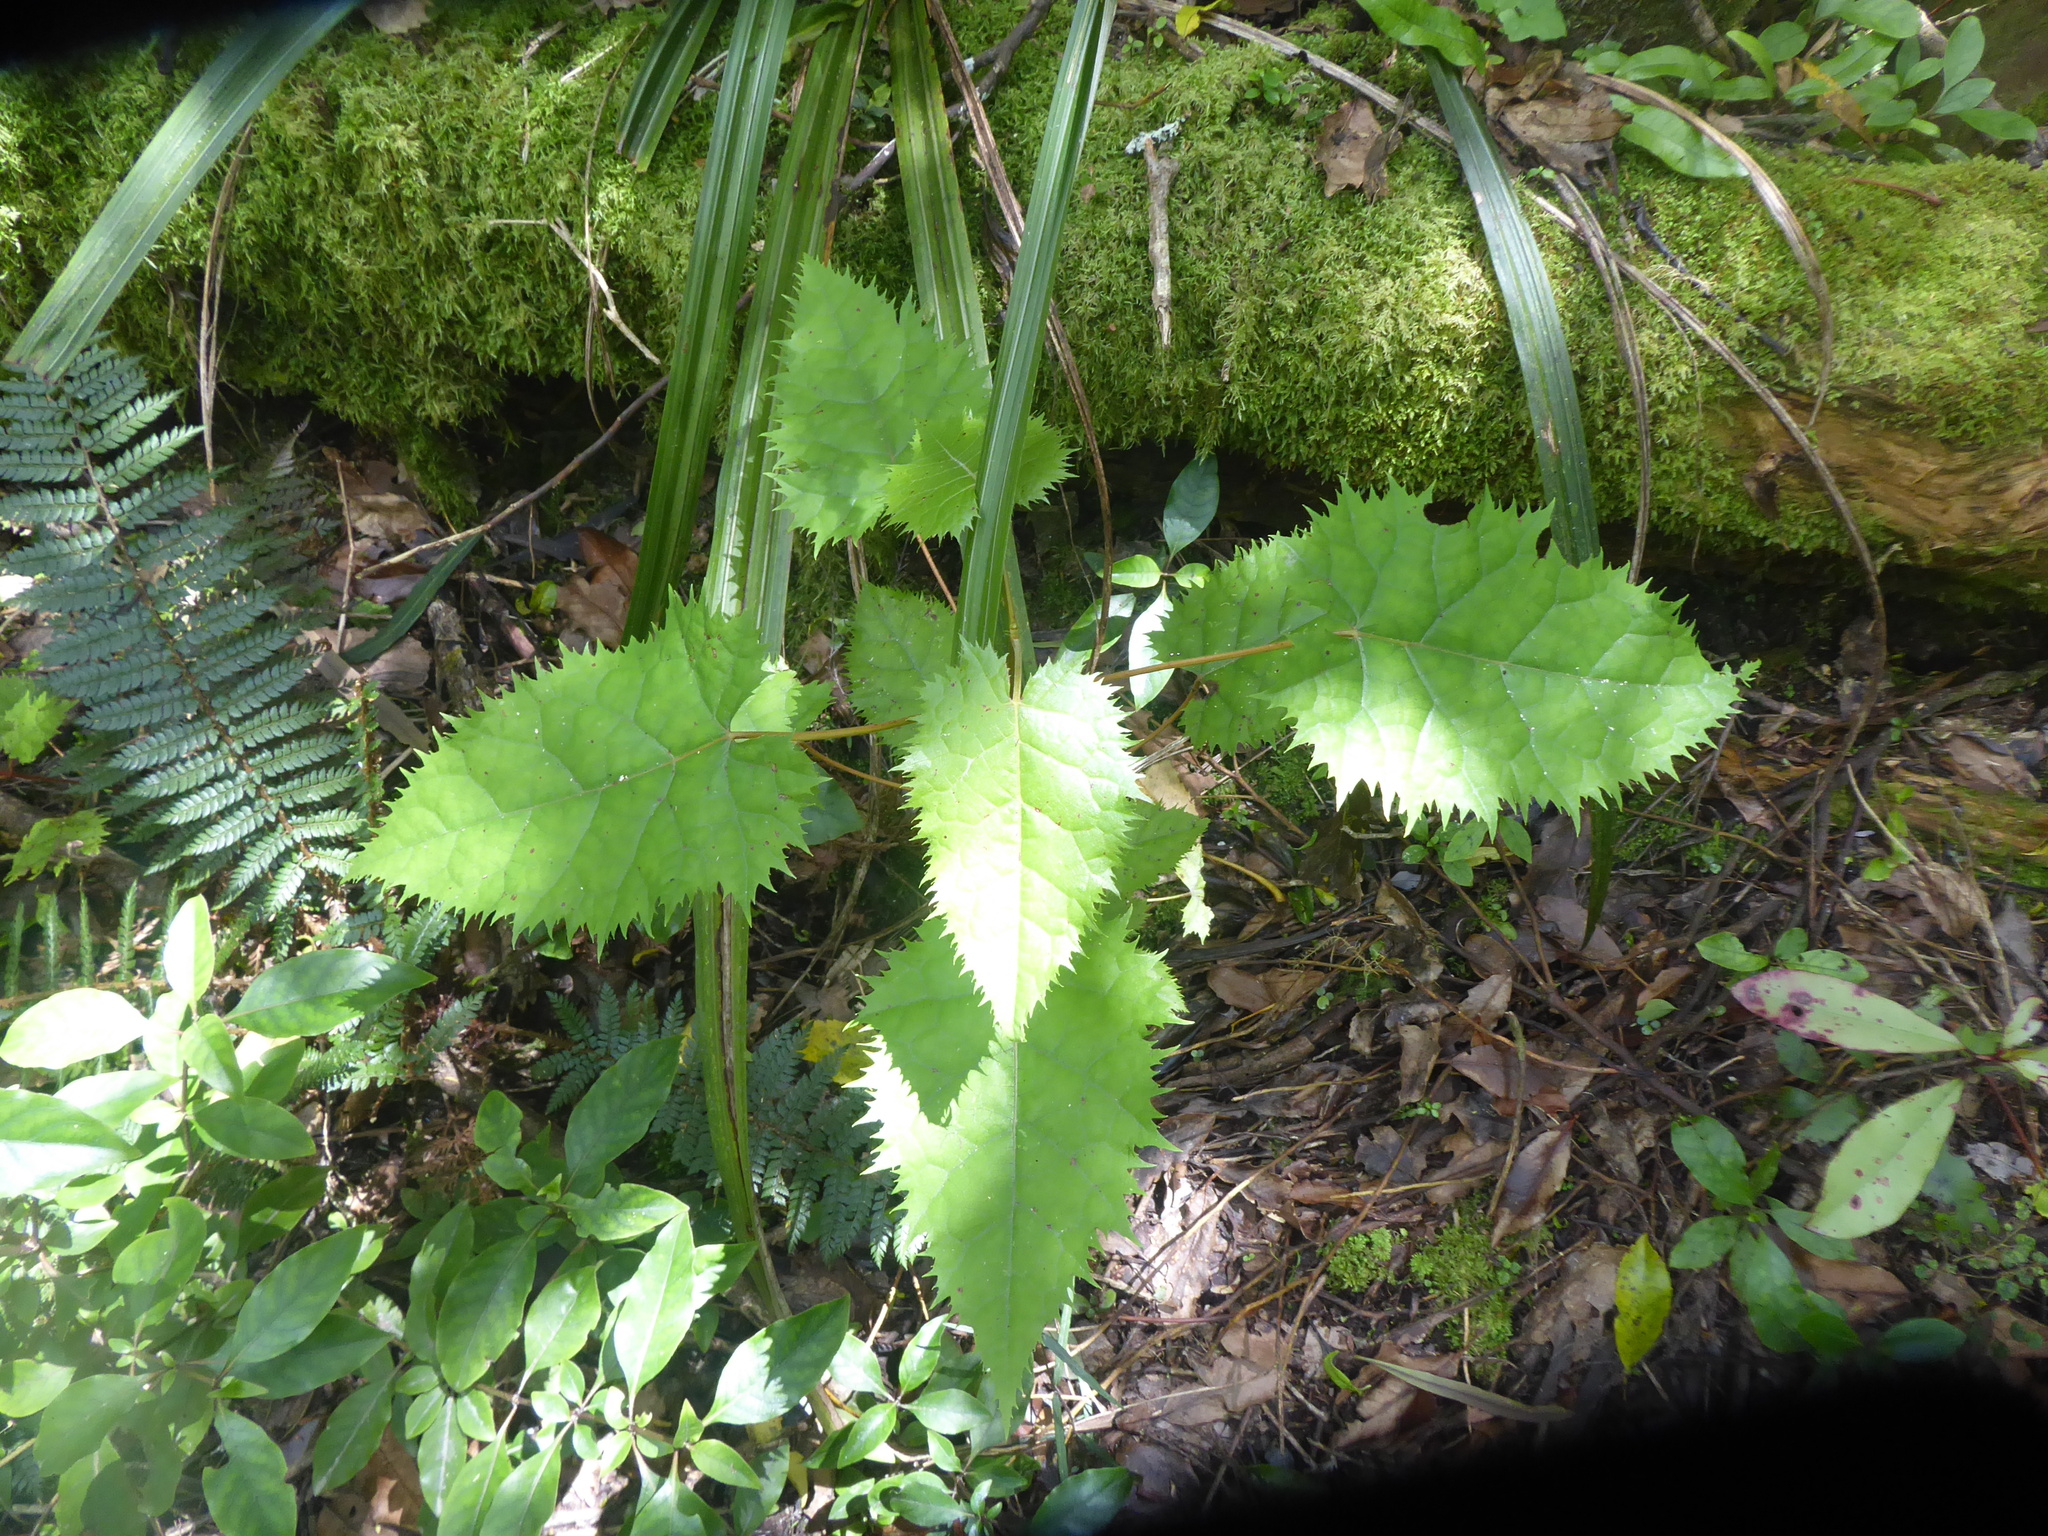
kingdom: Plantae
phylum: Tracheophyta
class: Magnoliopsida
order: Oxalidales
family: Elaeocarpaceae
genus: Aristotelia
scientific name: Aristotelia serrata
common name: New zealand wineberry
